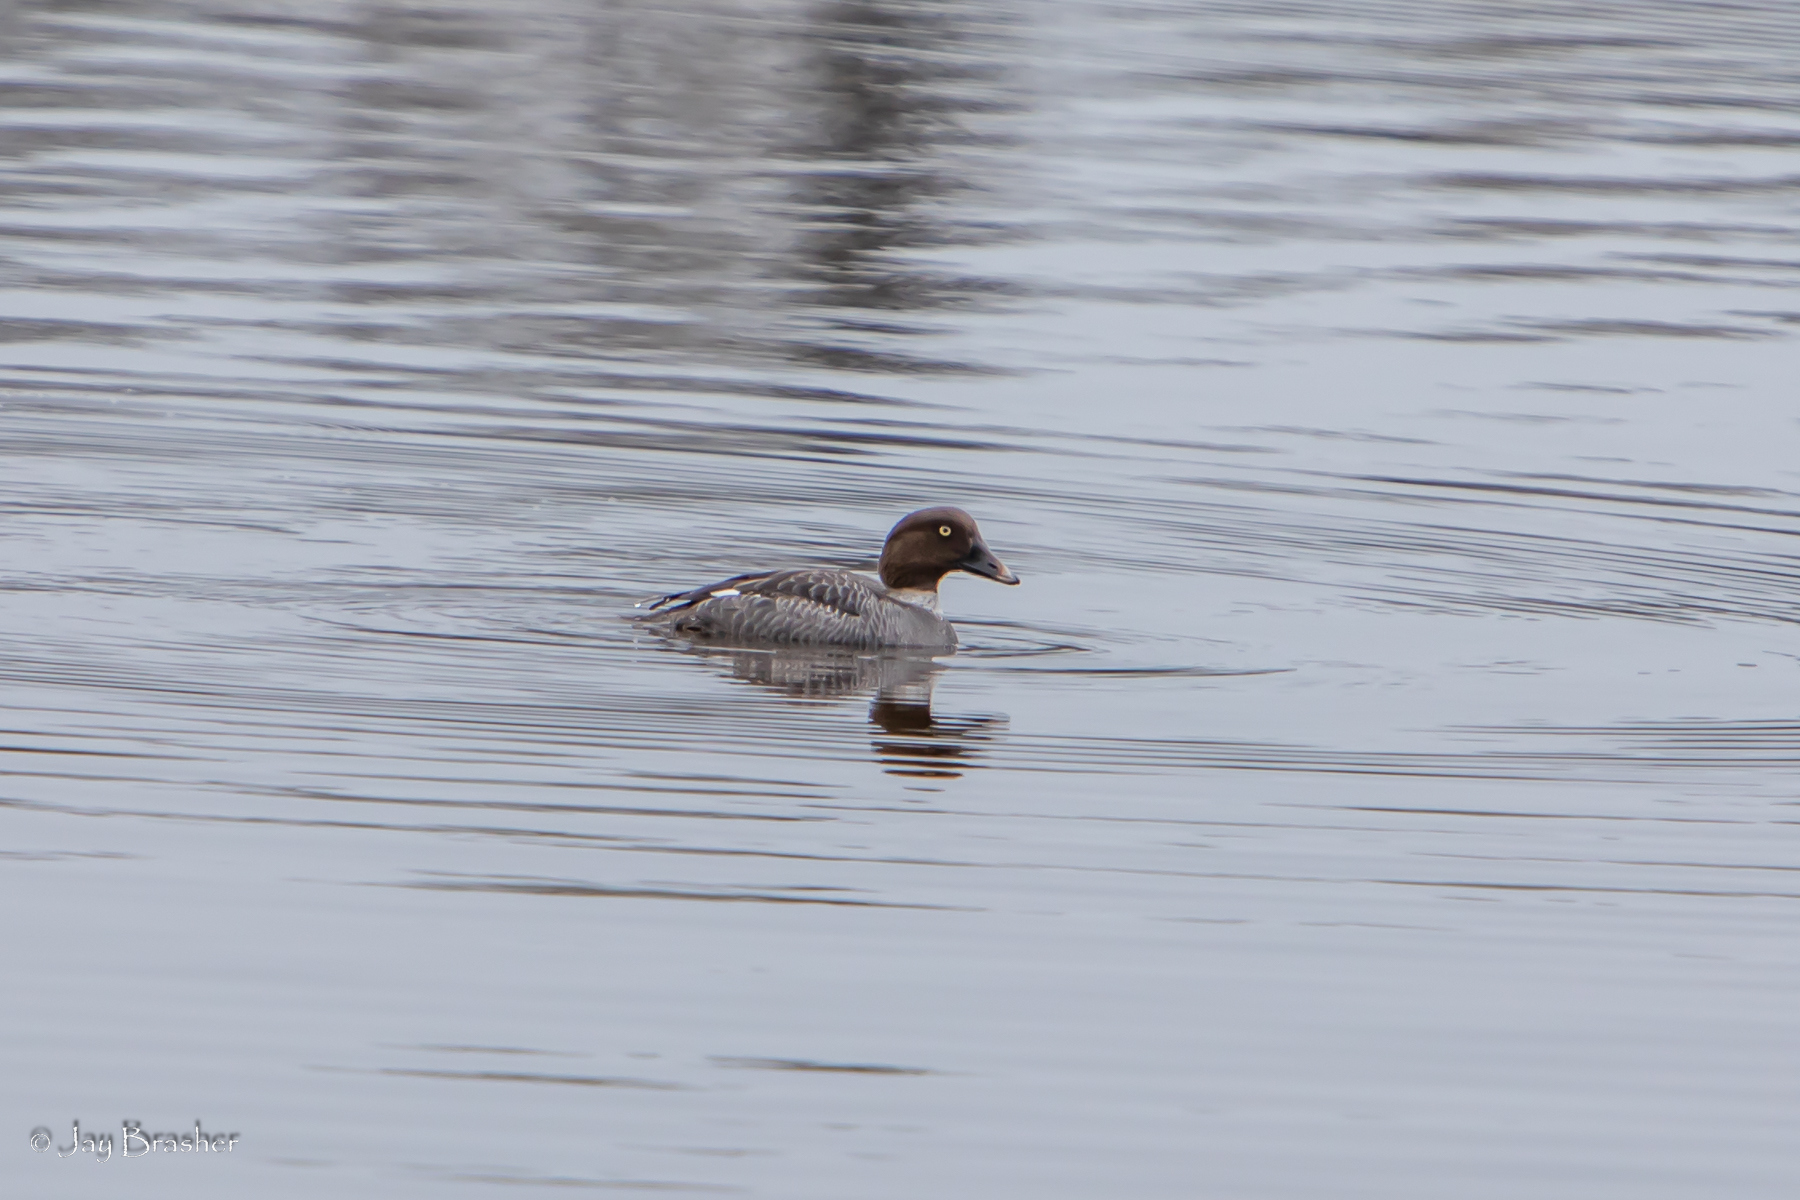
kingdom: Animalia
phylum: Chordata
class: Aves
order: Anseriformes
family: Anatidae
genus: Bucephala
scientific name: Bucephala clangula
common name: Common goldeneye
